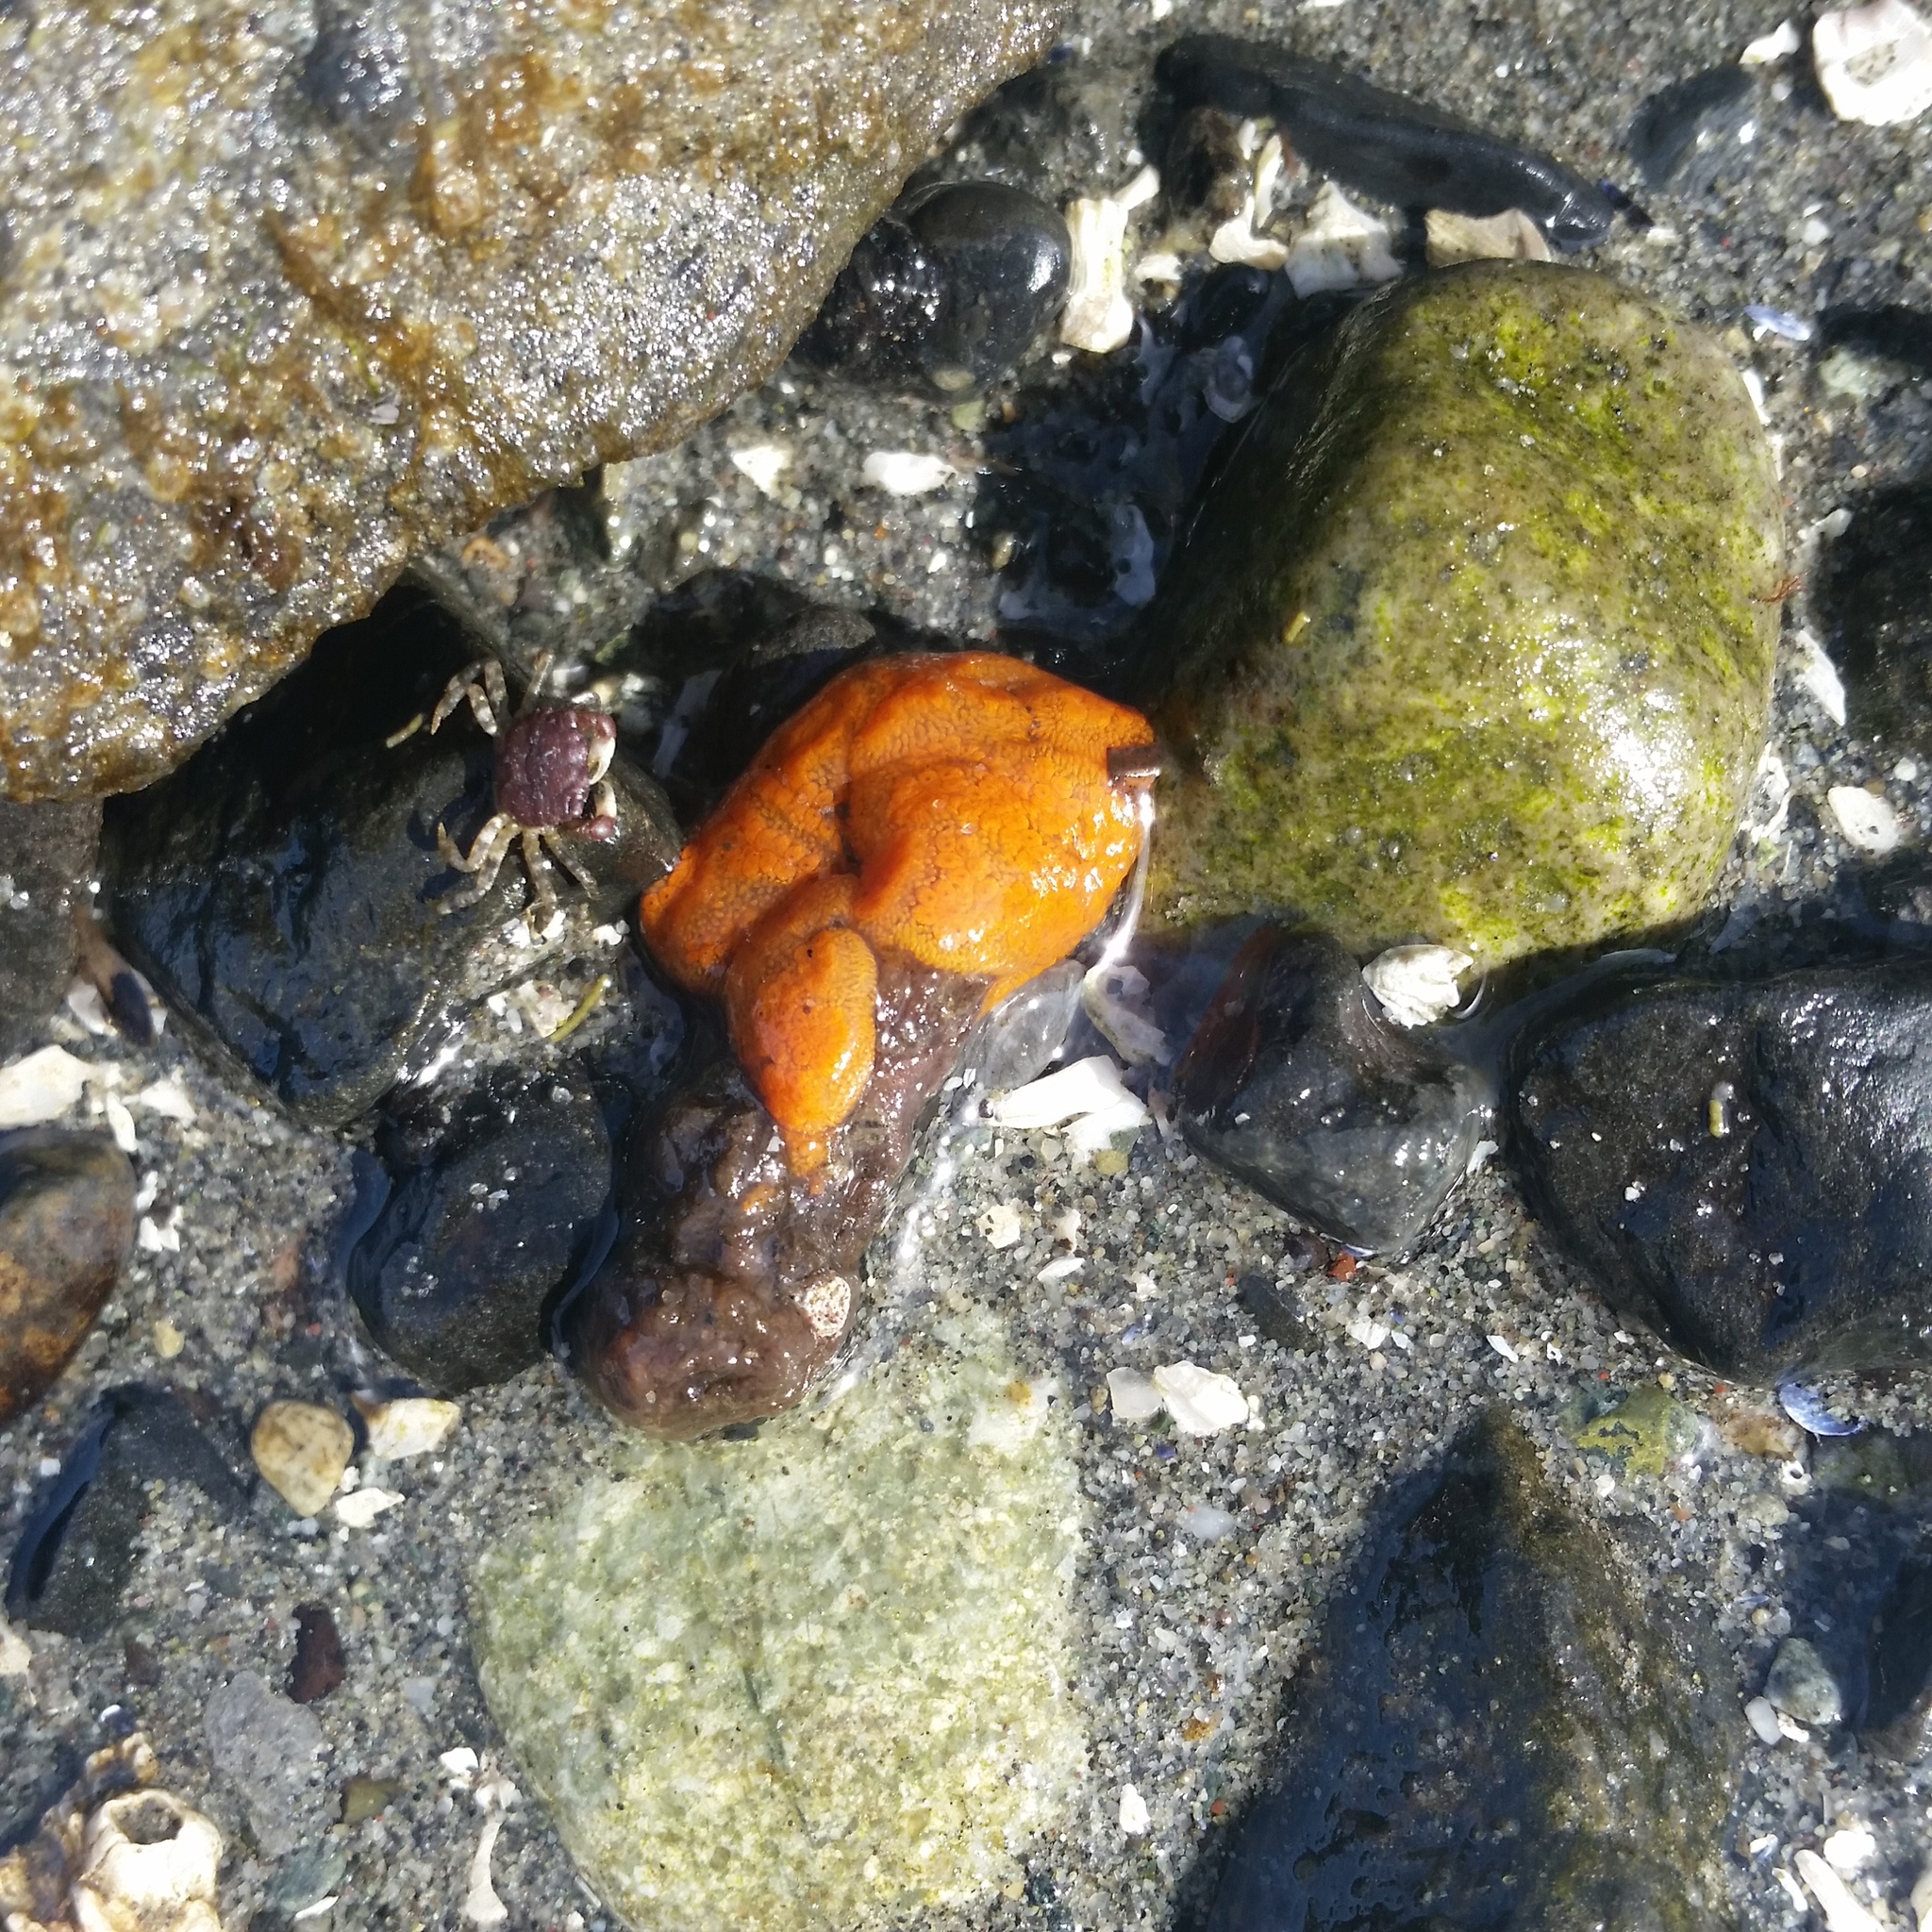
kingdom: Animalia
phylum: Chordata
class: Ascidiacea
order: Stolidobranchia
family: Styelidae
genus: Botrylloides
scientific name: Botrylloides violaceus
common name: Colonial sea squirt
